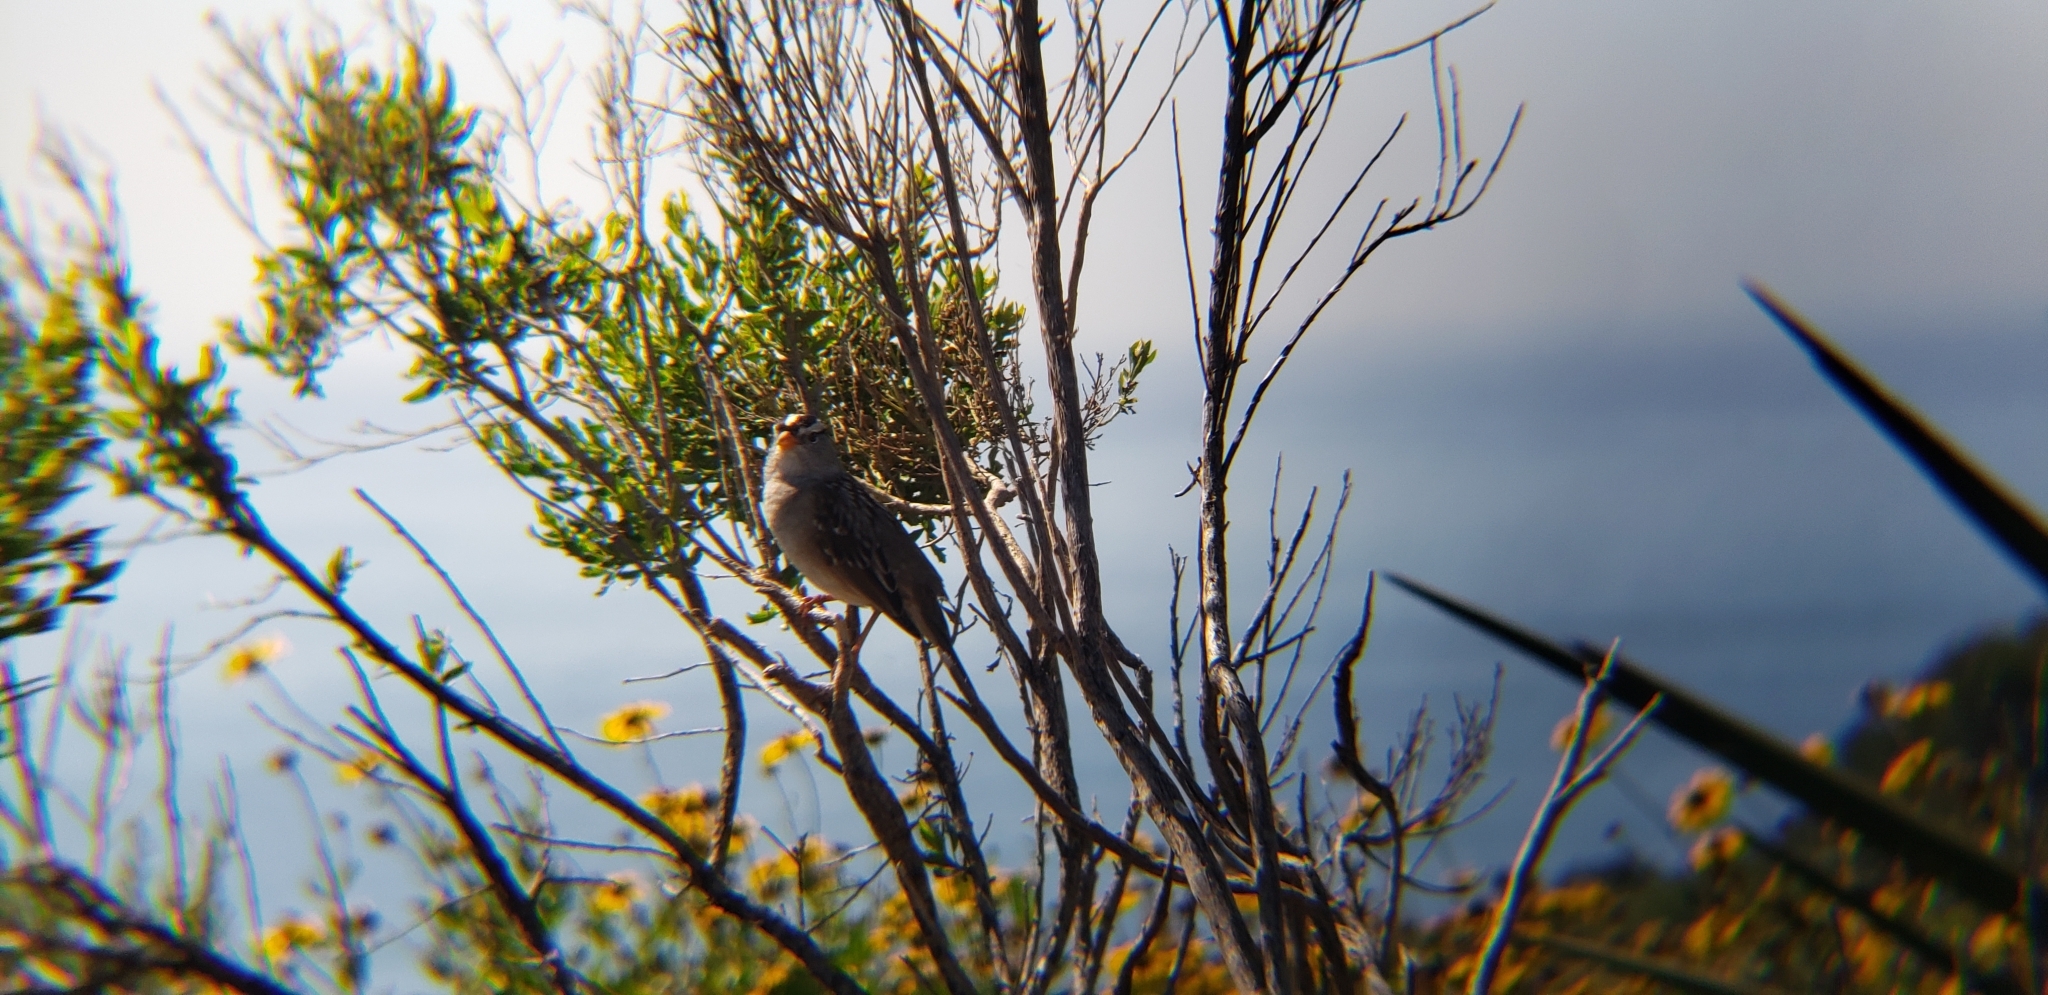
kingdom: Animalia
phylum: Chordata
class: Aves
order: Passeriformes
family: Passerellidae
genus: Zonotrichia
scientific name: Zonotrichia leucophrys
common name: White-crowned sparrow
